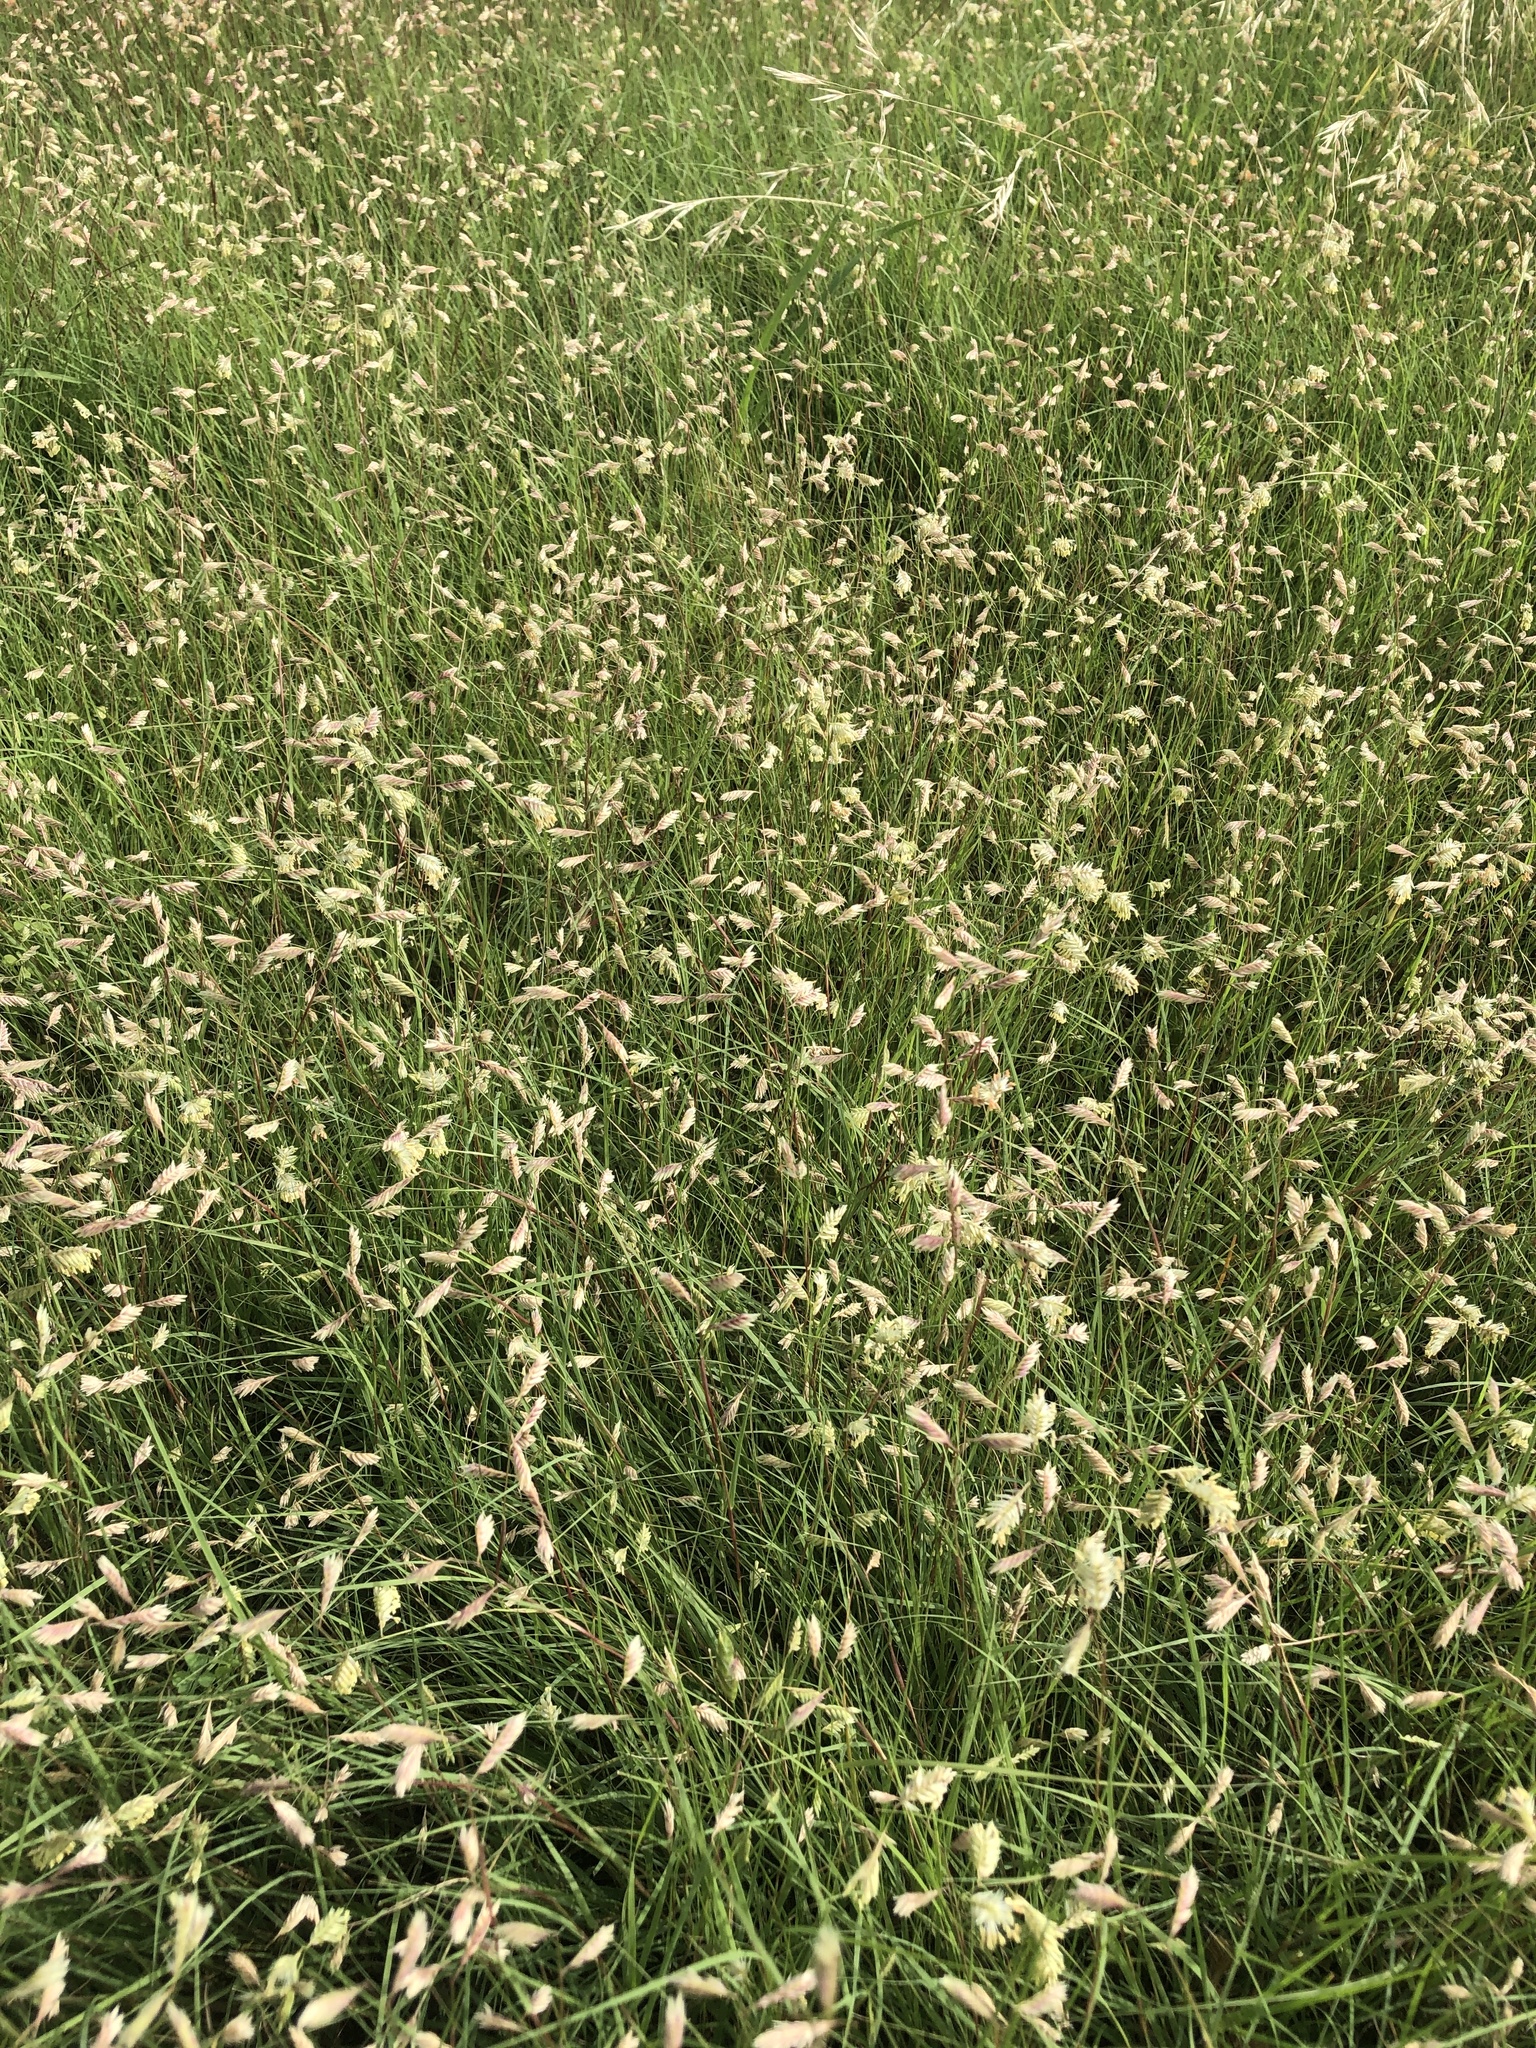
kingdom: Plantae
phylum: Tracheophyta
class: Liliopsida
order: Poales
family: Poaceae
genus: Bouteloua
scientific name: Bouteloua dactyloides
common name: Buffalo grass
